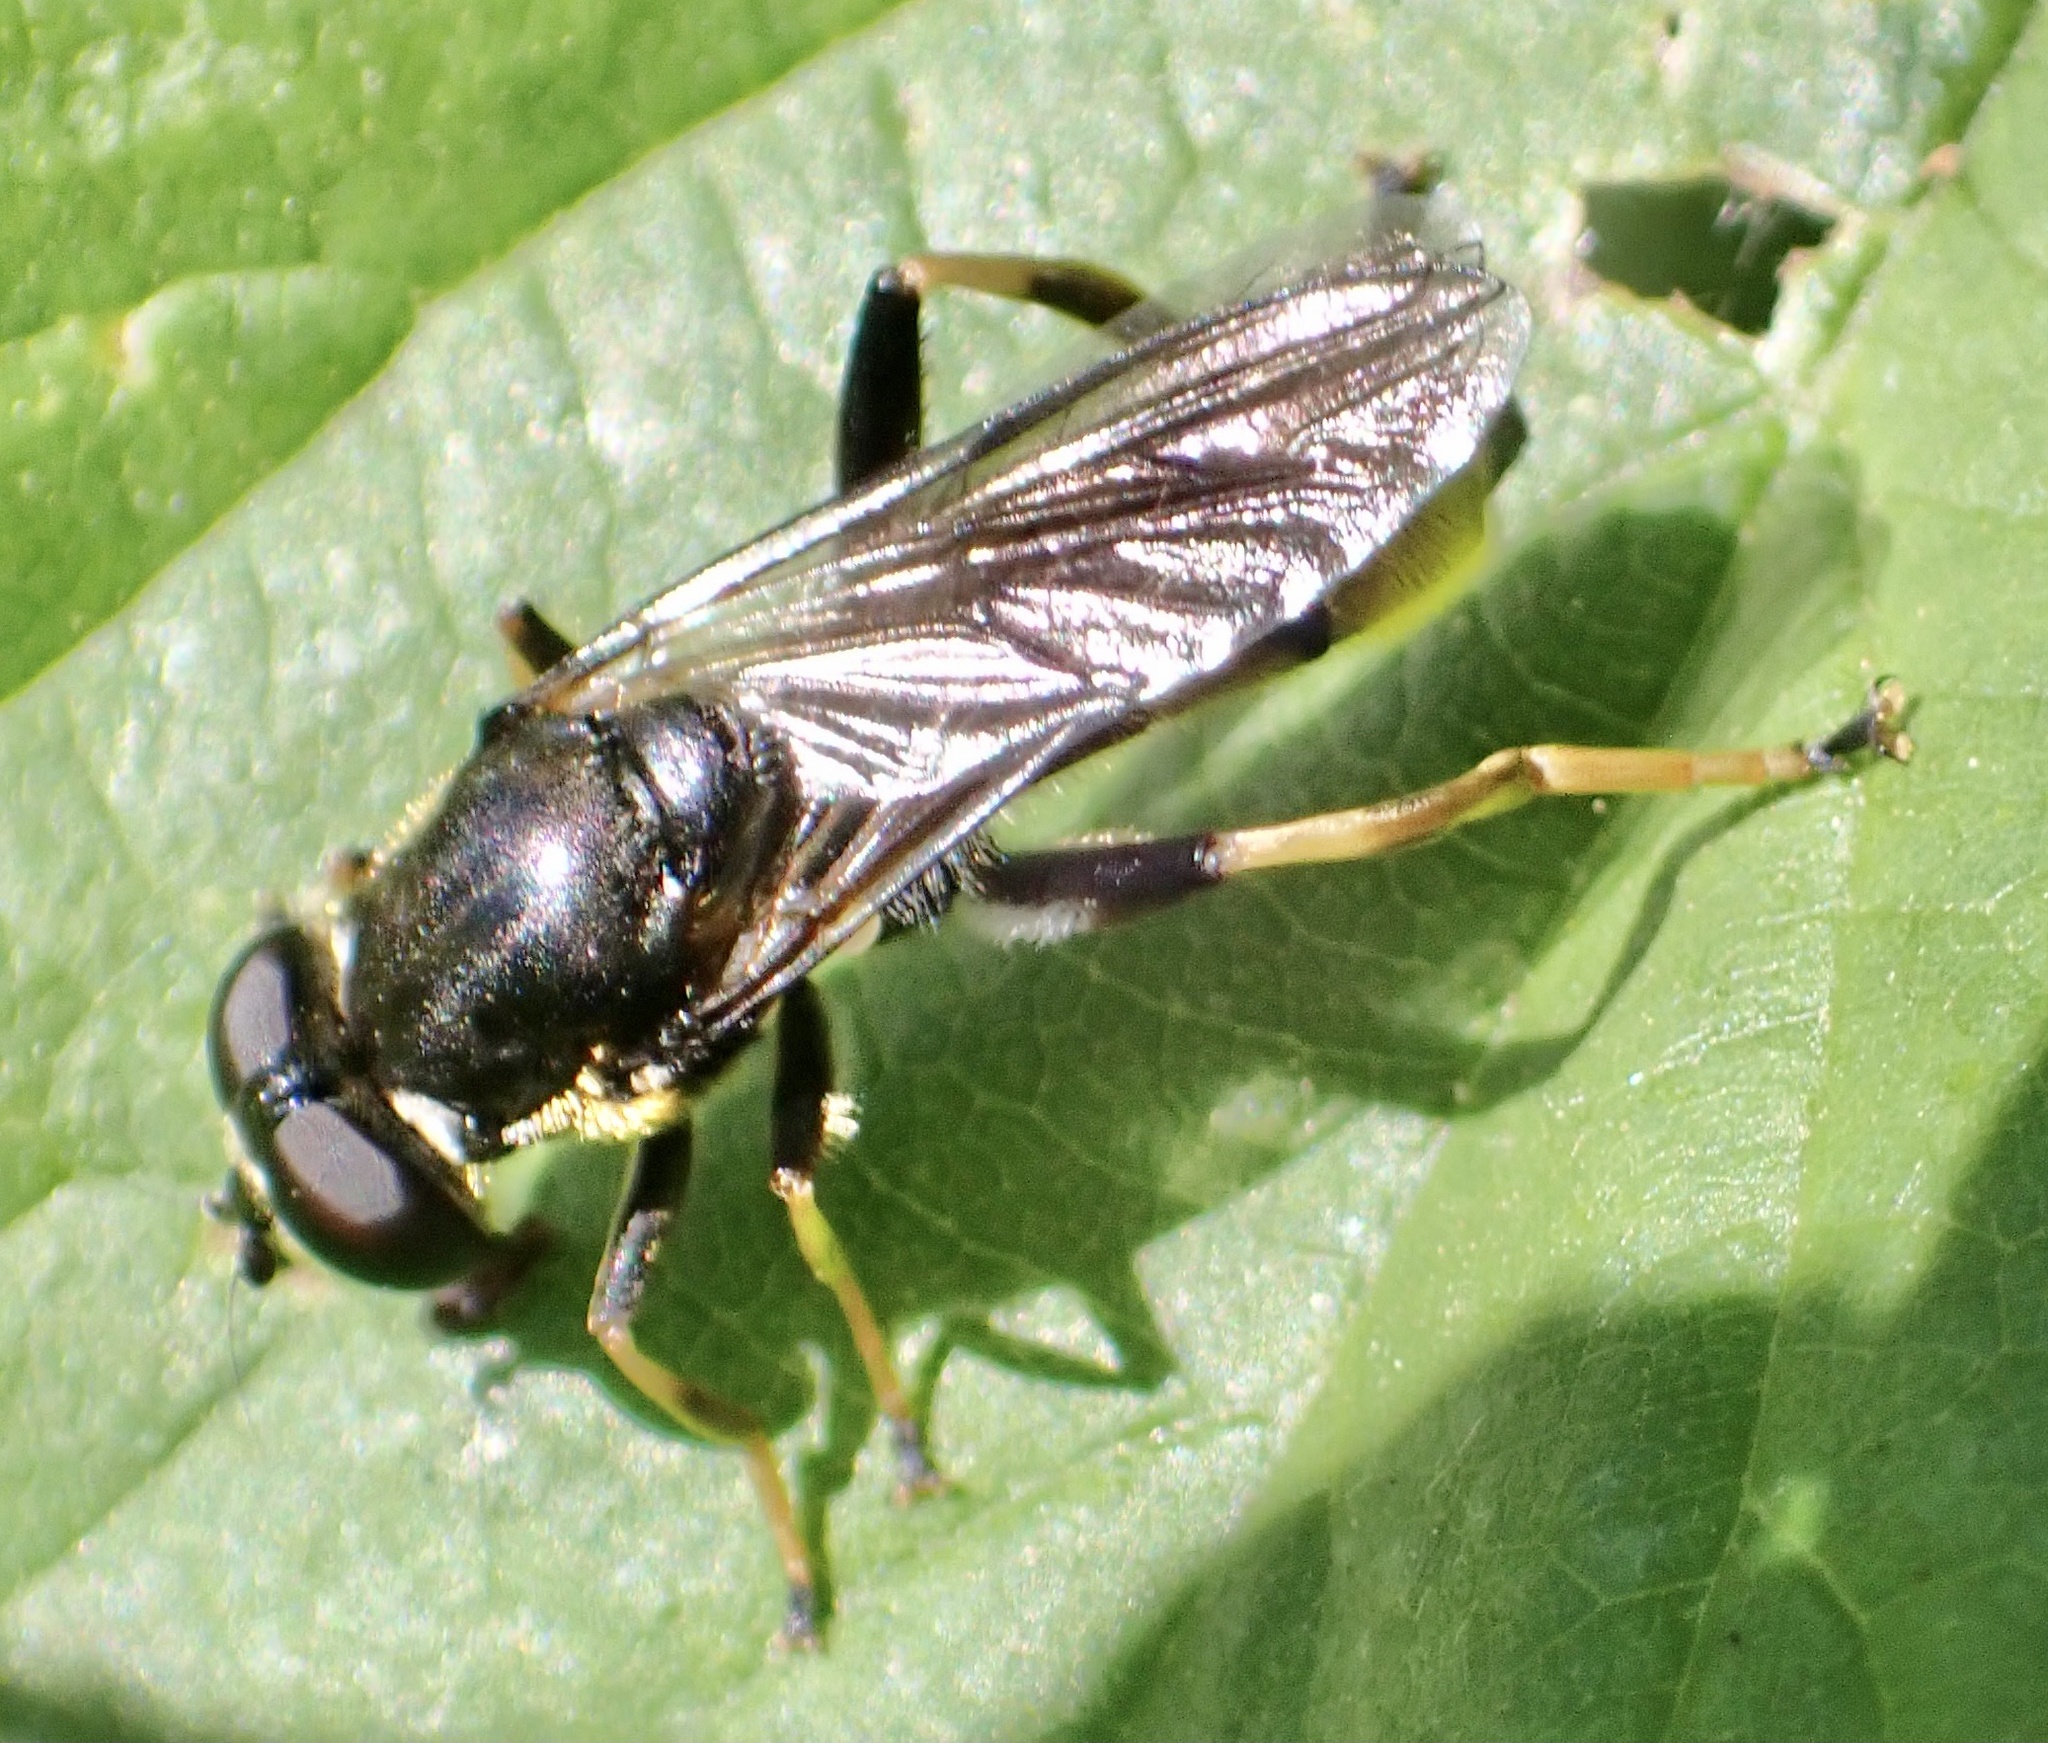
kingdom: Animalia
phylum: Arthropoda
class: Insecta
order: Diptera
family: Syrphidae
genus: Xylota
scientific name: Xylota sylvarum
